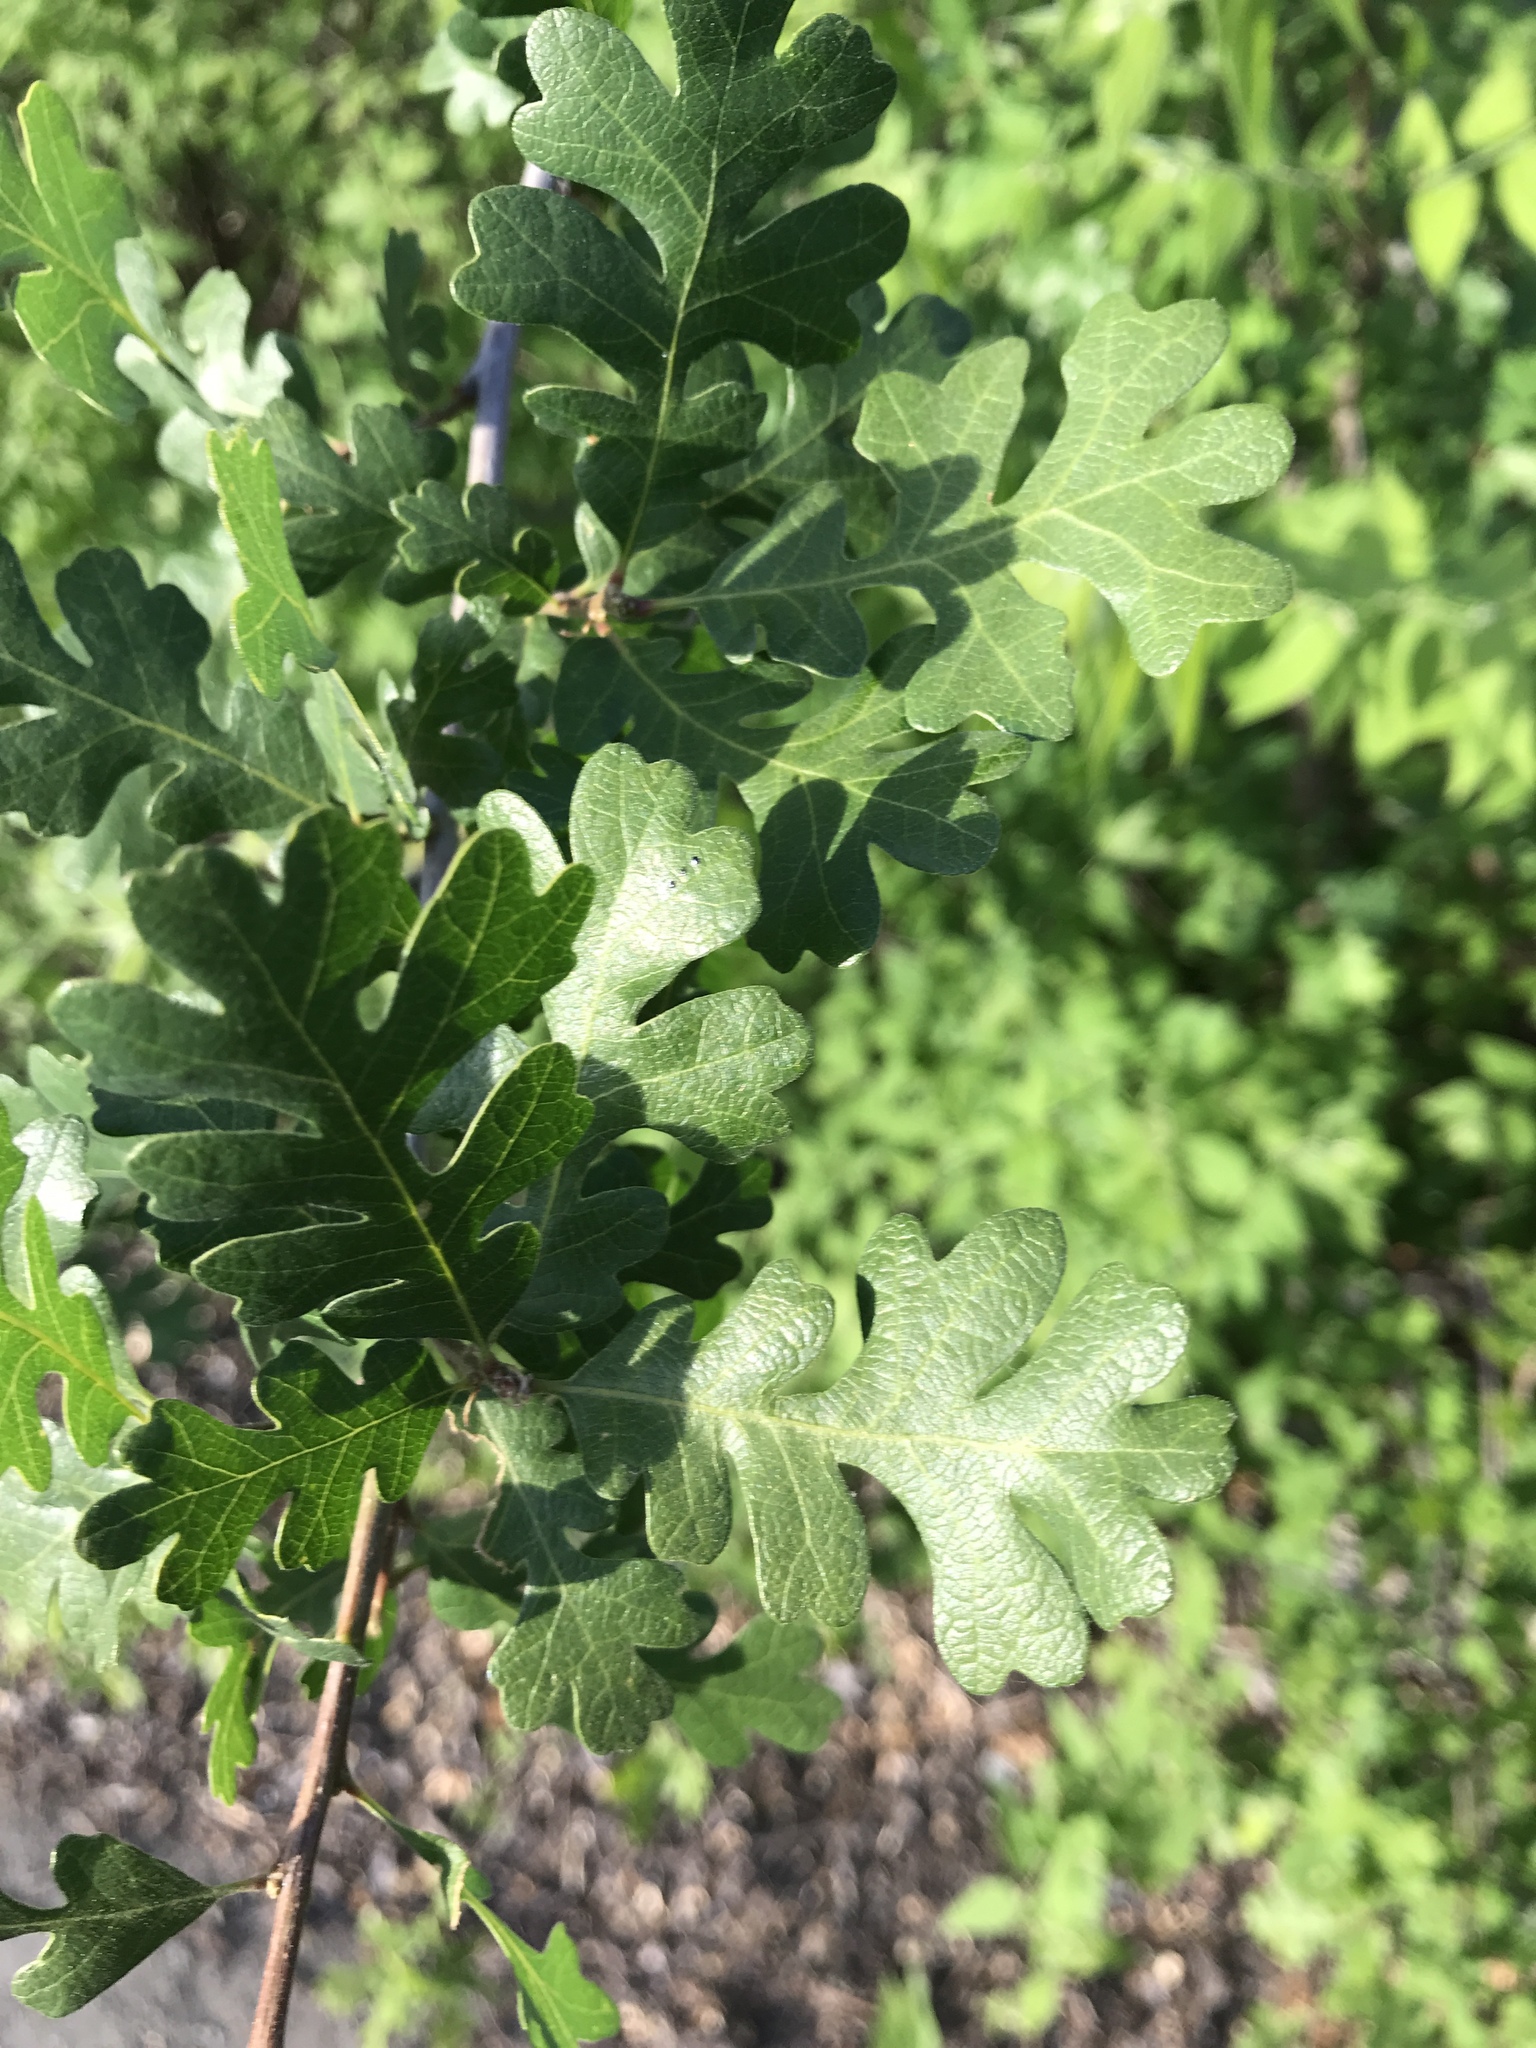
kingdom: Plantae
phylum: Tracheophyta
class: Magnoliopsida
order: Fagales
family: Fagaceae
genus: Quercus
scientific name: Quercus lobata
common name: Valley oak
